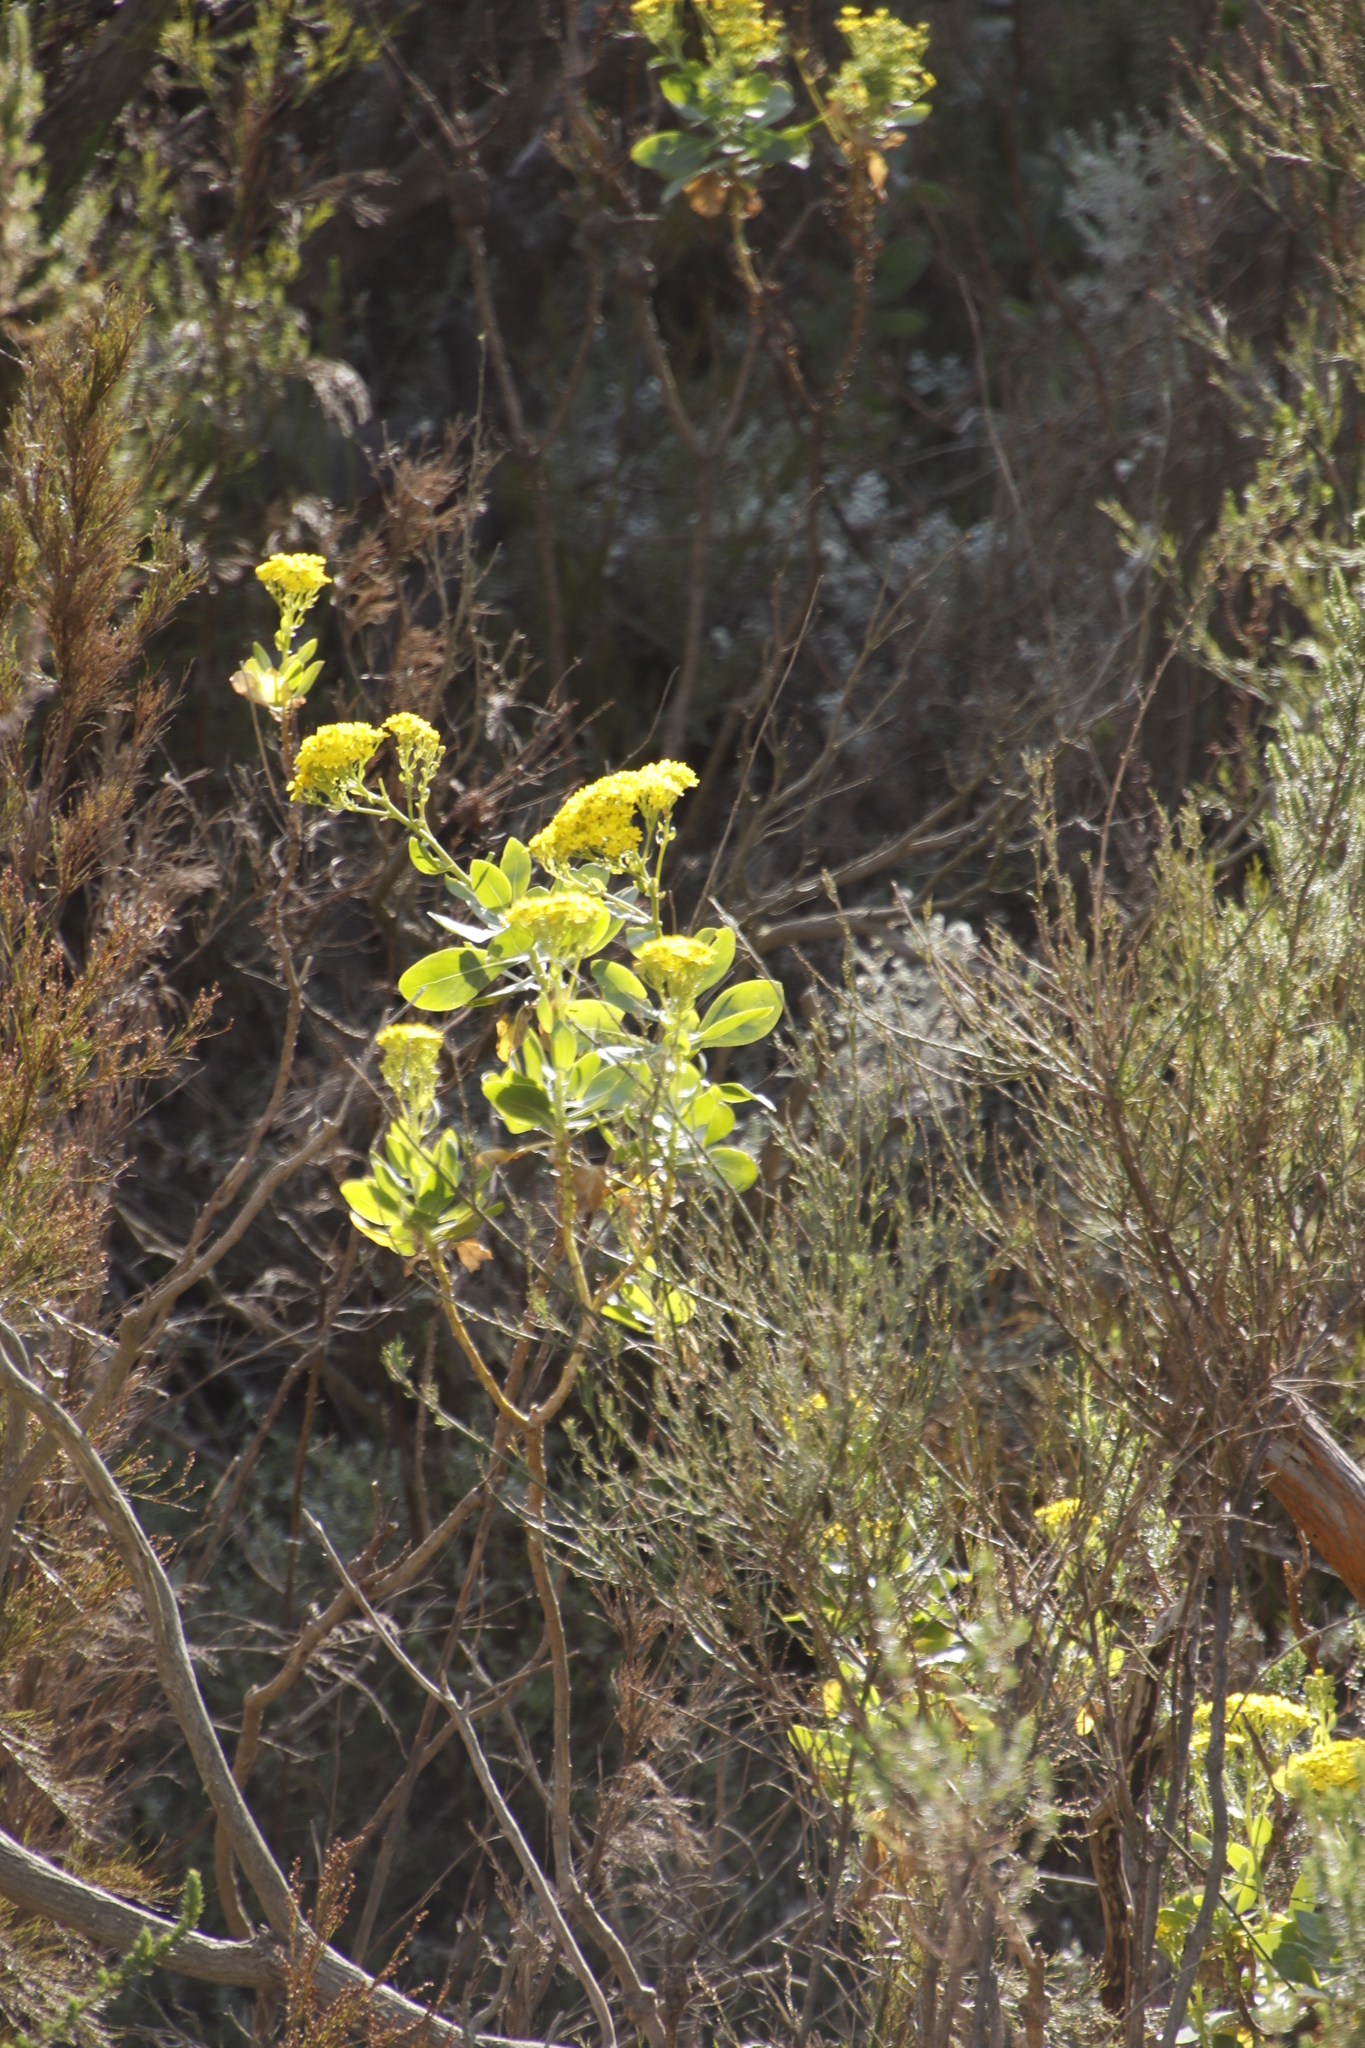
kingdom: Plantae
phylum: Tracheophyta
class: Magnoliopsida
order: Asterales
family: Asteraceae
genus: Othonna
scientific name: Othonna parviflora
